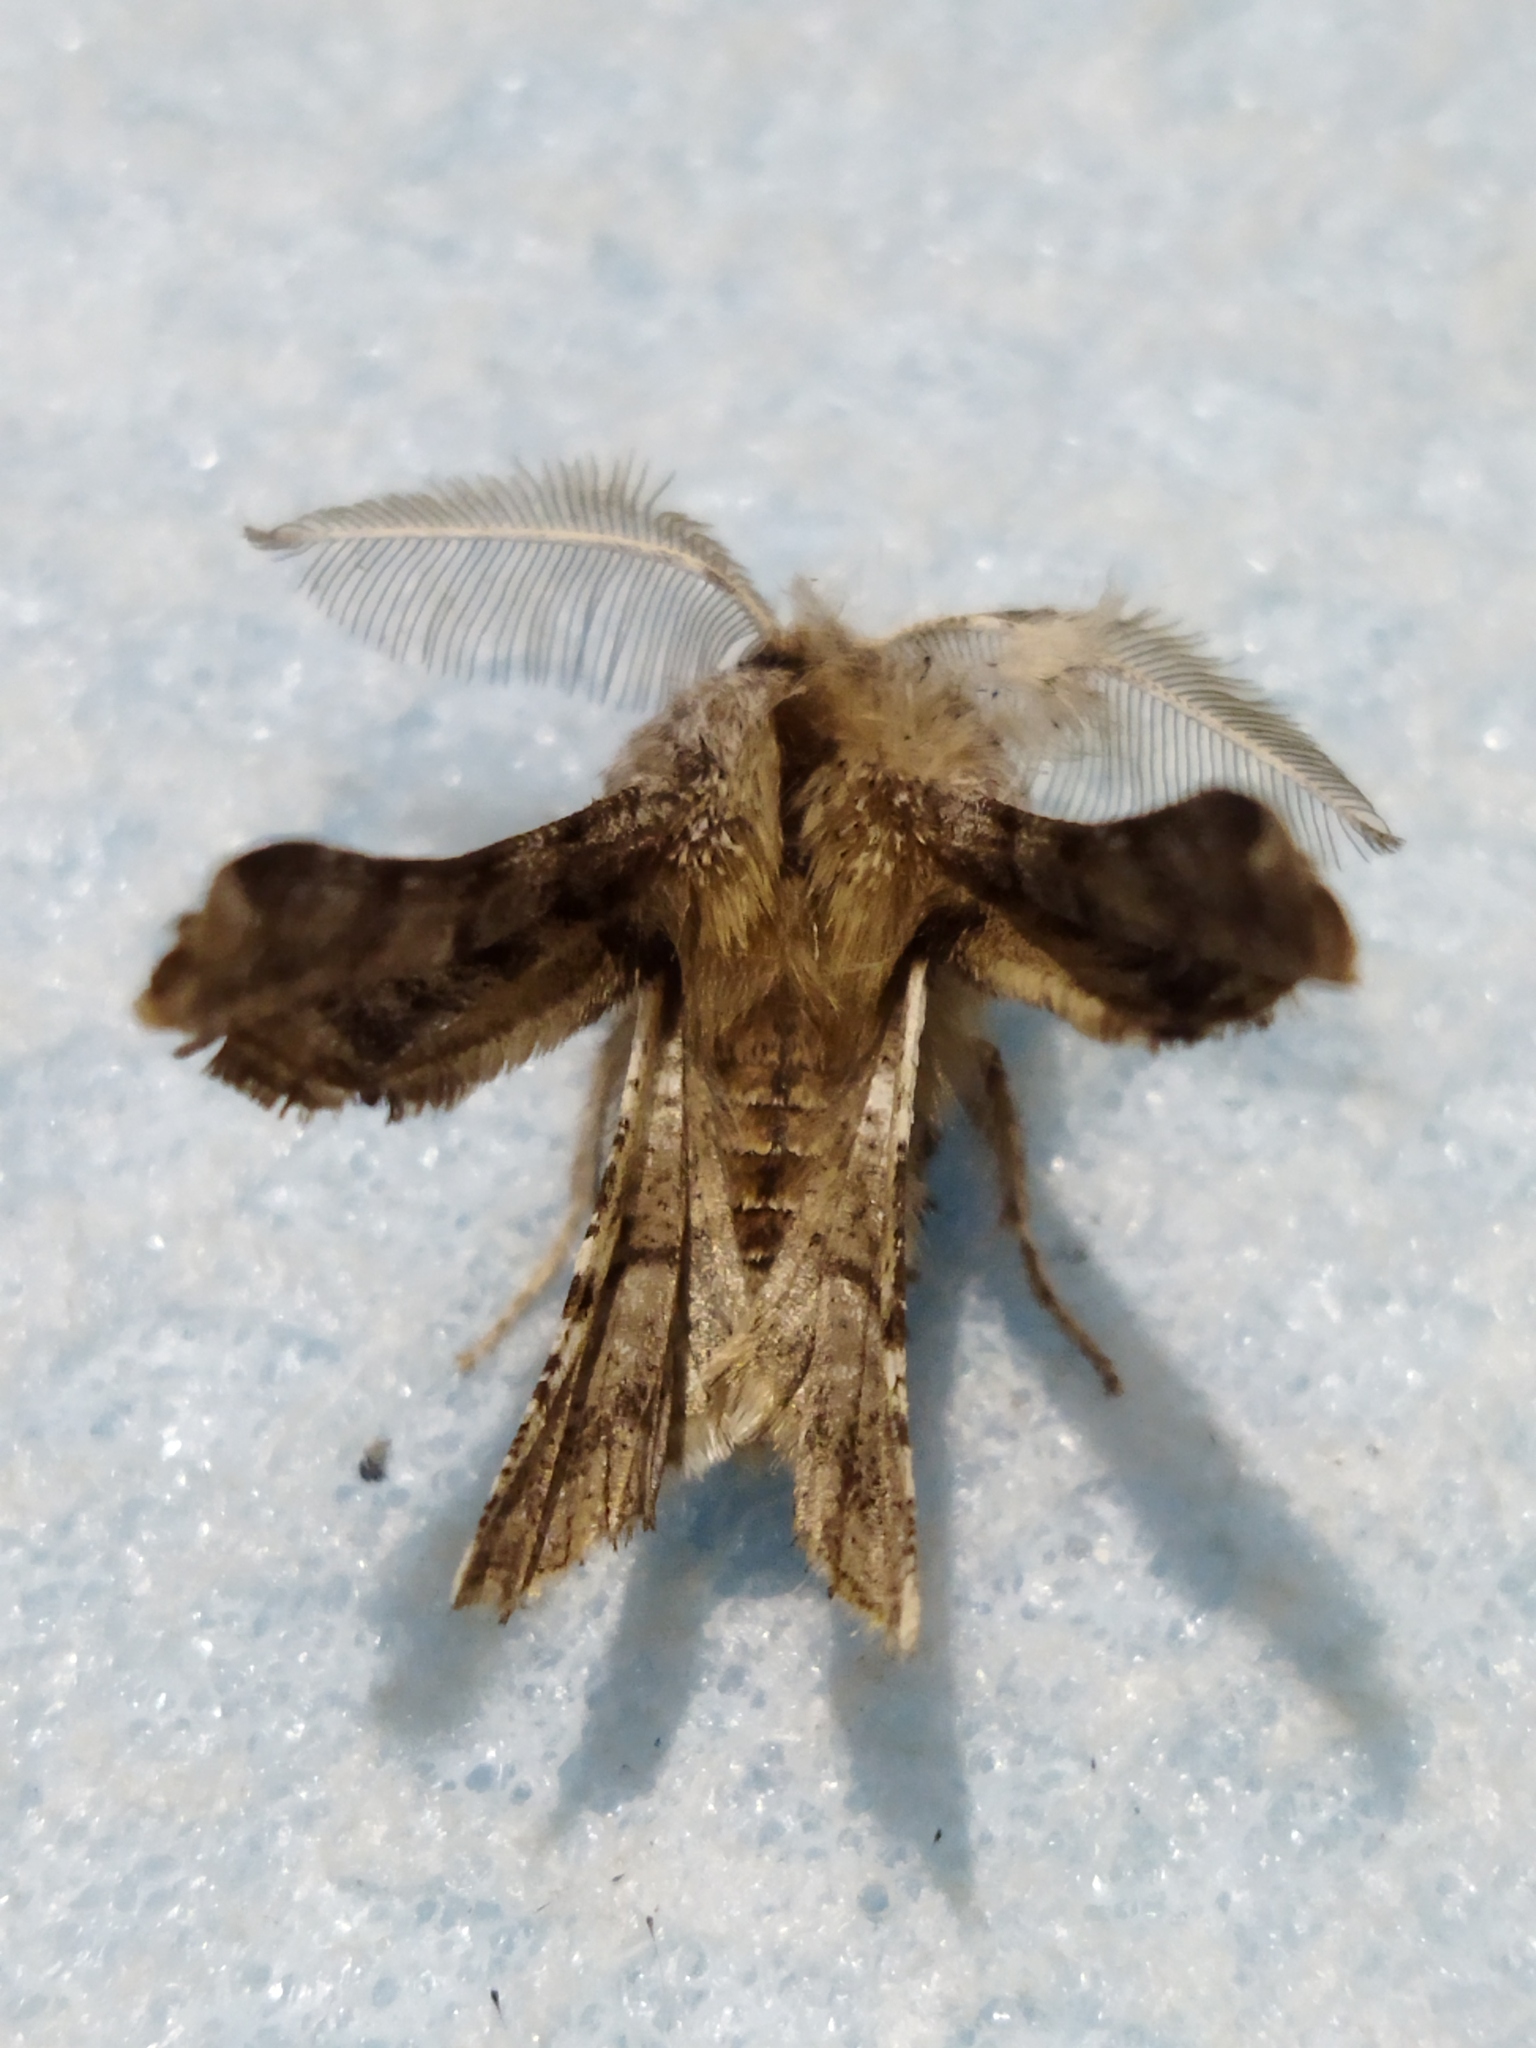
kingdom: Animalia
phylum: Arthropoda
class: Insecta
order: Lepidoptera
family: Geometridae
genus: Apochima
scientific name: Apochima flabellaria
